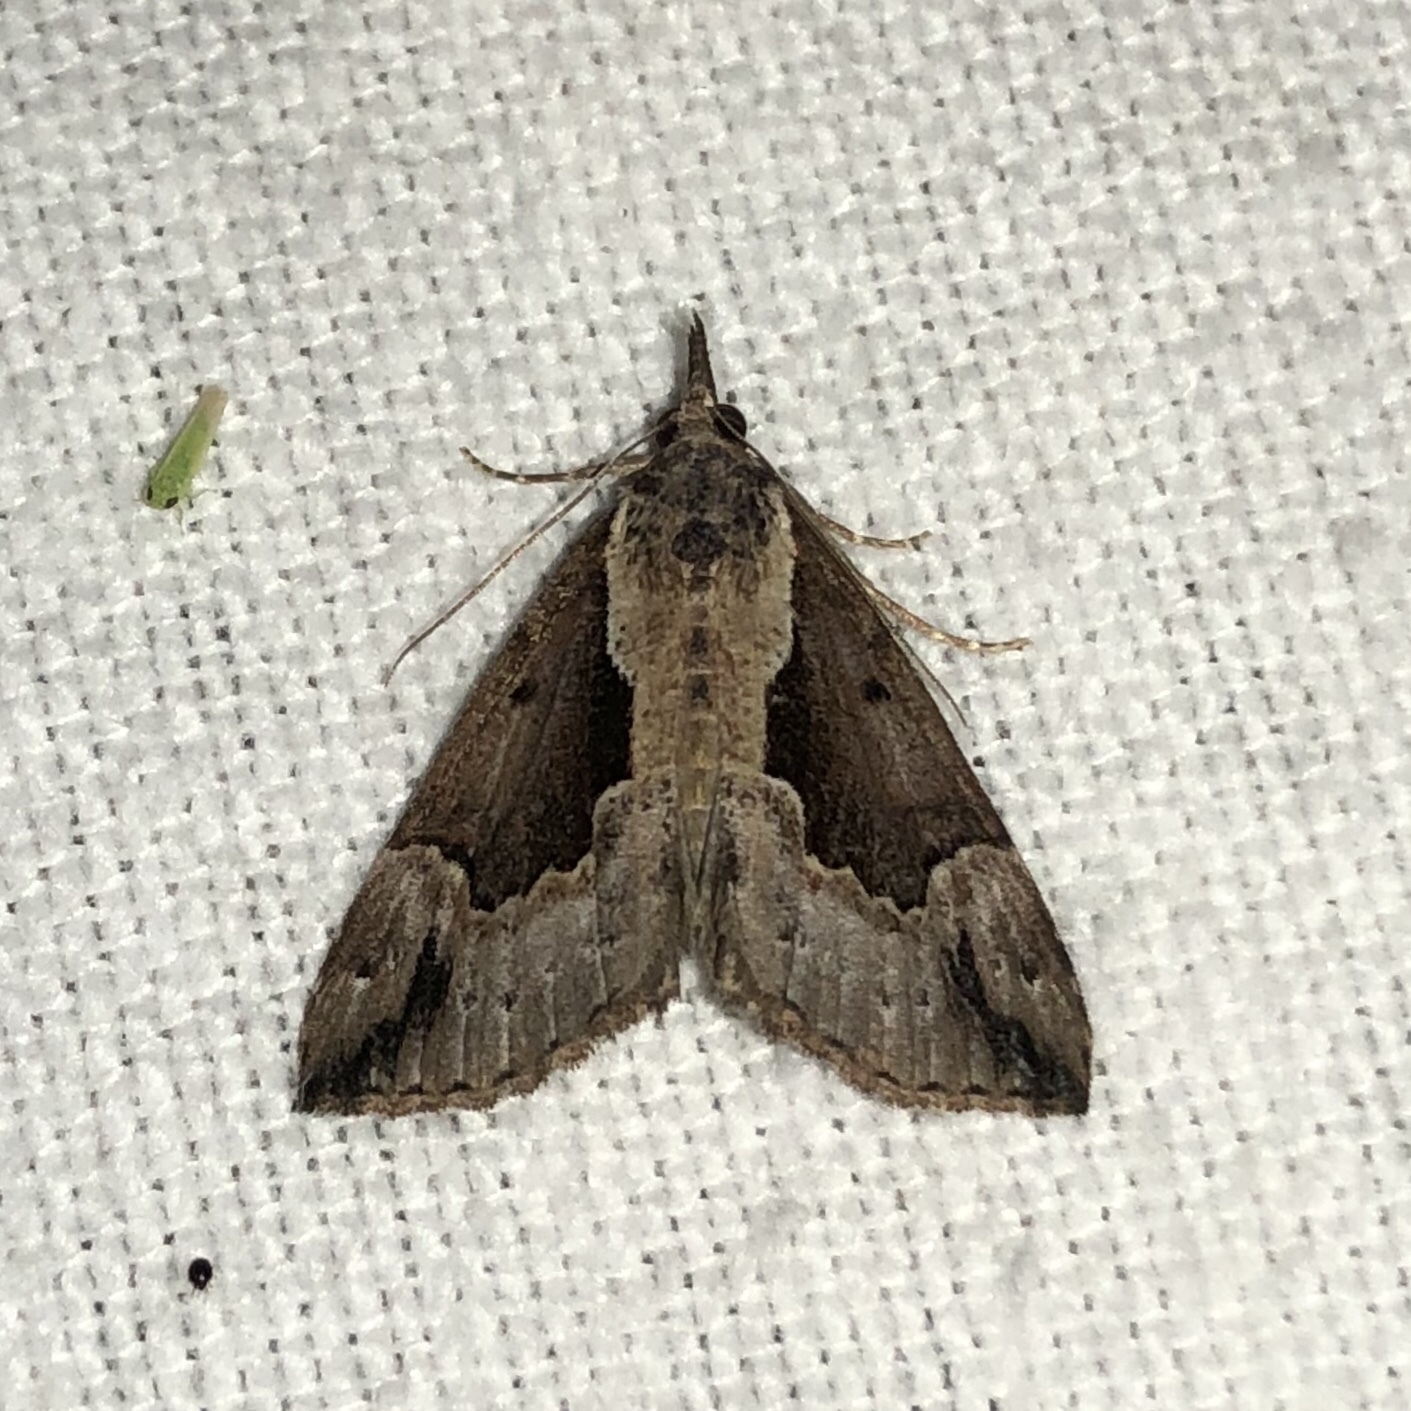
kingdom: Animalia
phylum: Arthropoda
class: Insecta
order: Lepidoptera
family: Erebidae
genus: Hypena
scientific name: Hypena baltimoralis
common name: Baltimore snout
